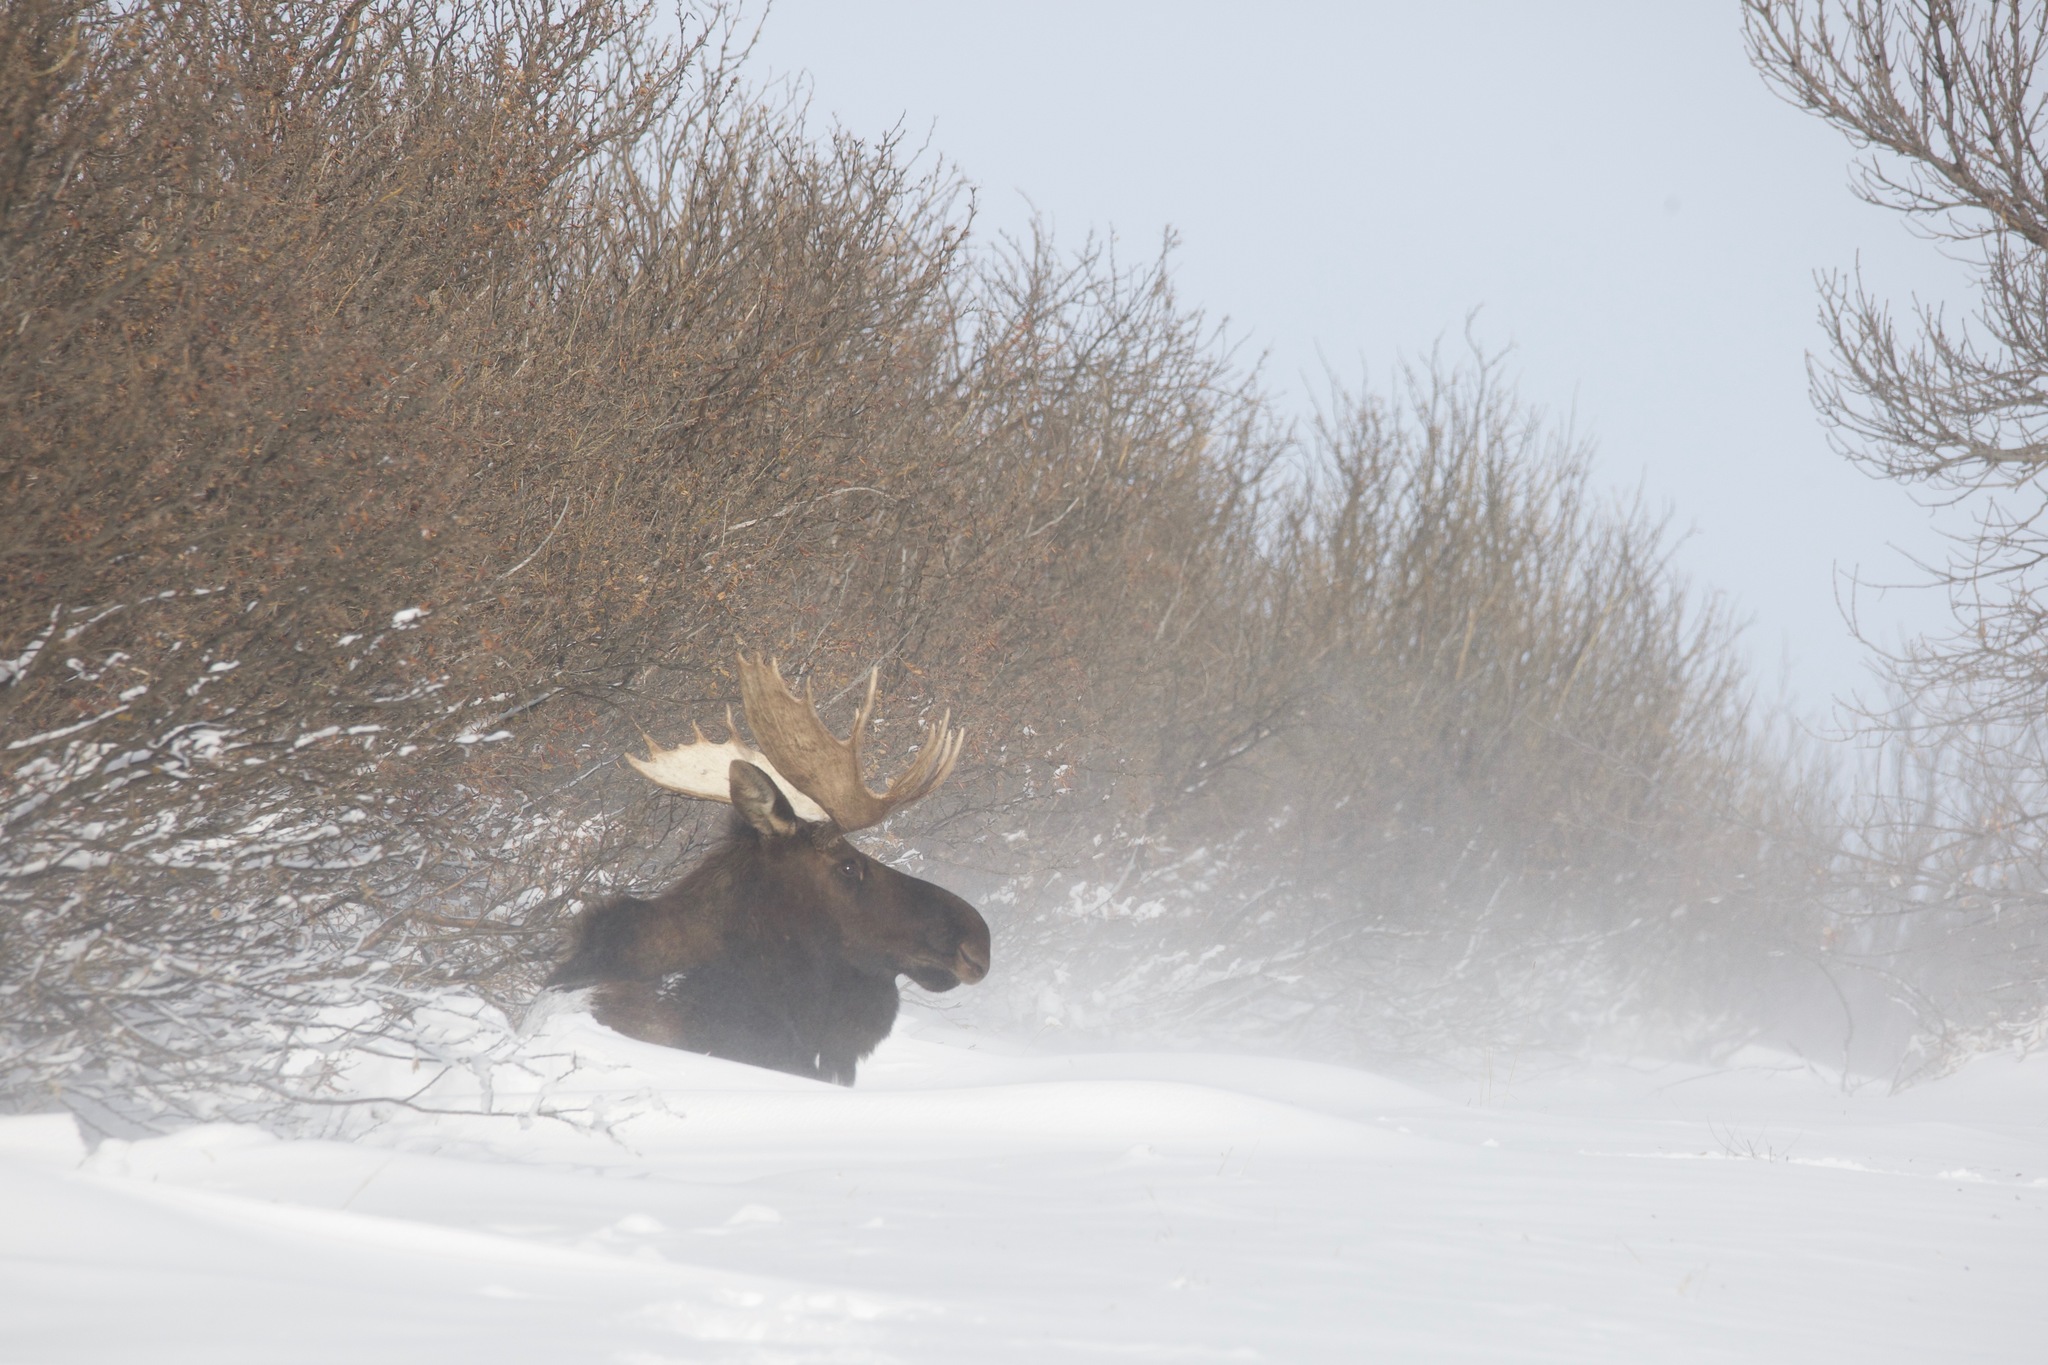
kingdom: Animalia
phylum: Chordata
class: Mammalia
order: Artiodactyla
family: Cervidae
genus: Alces
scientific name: Alces alces
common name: Moose
